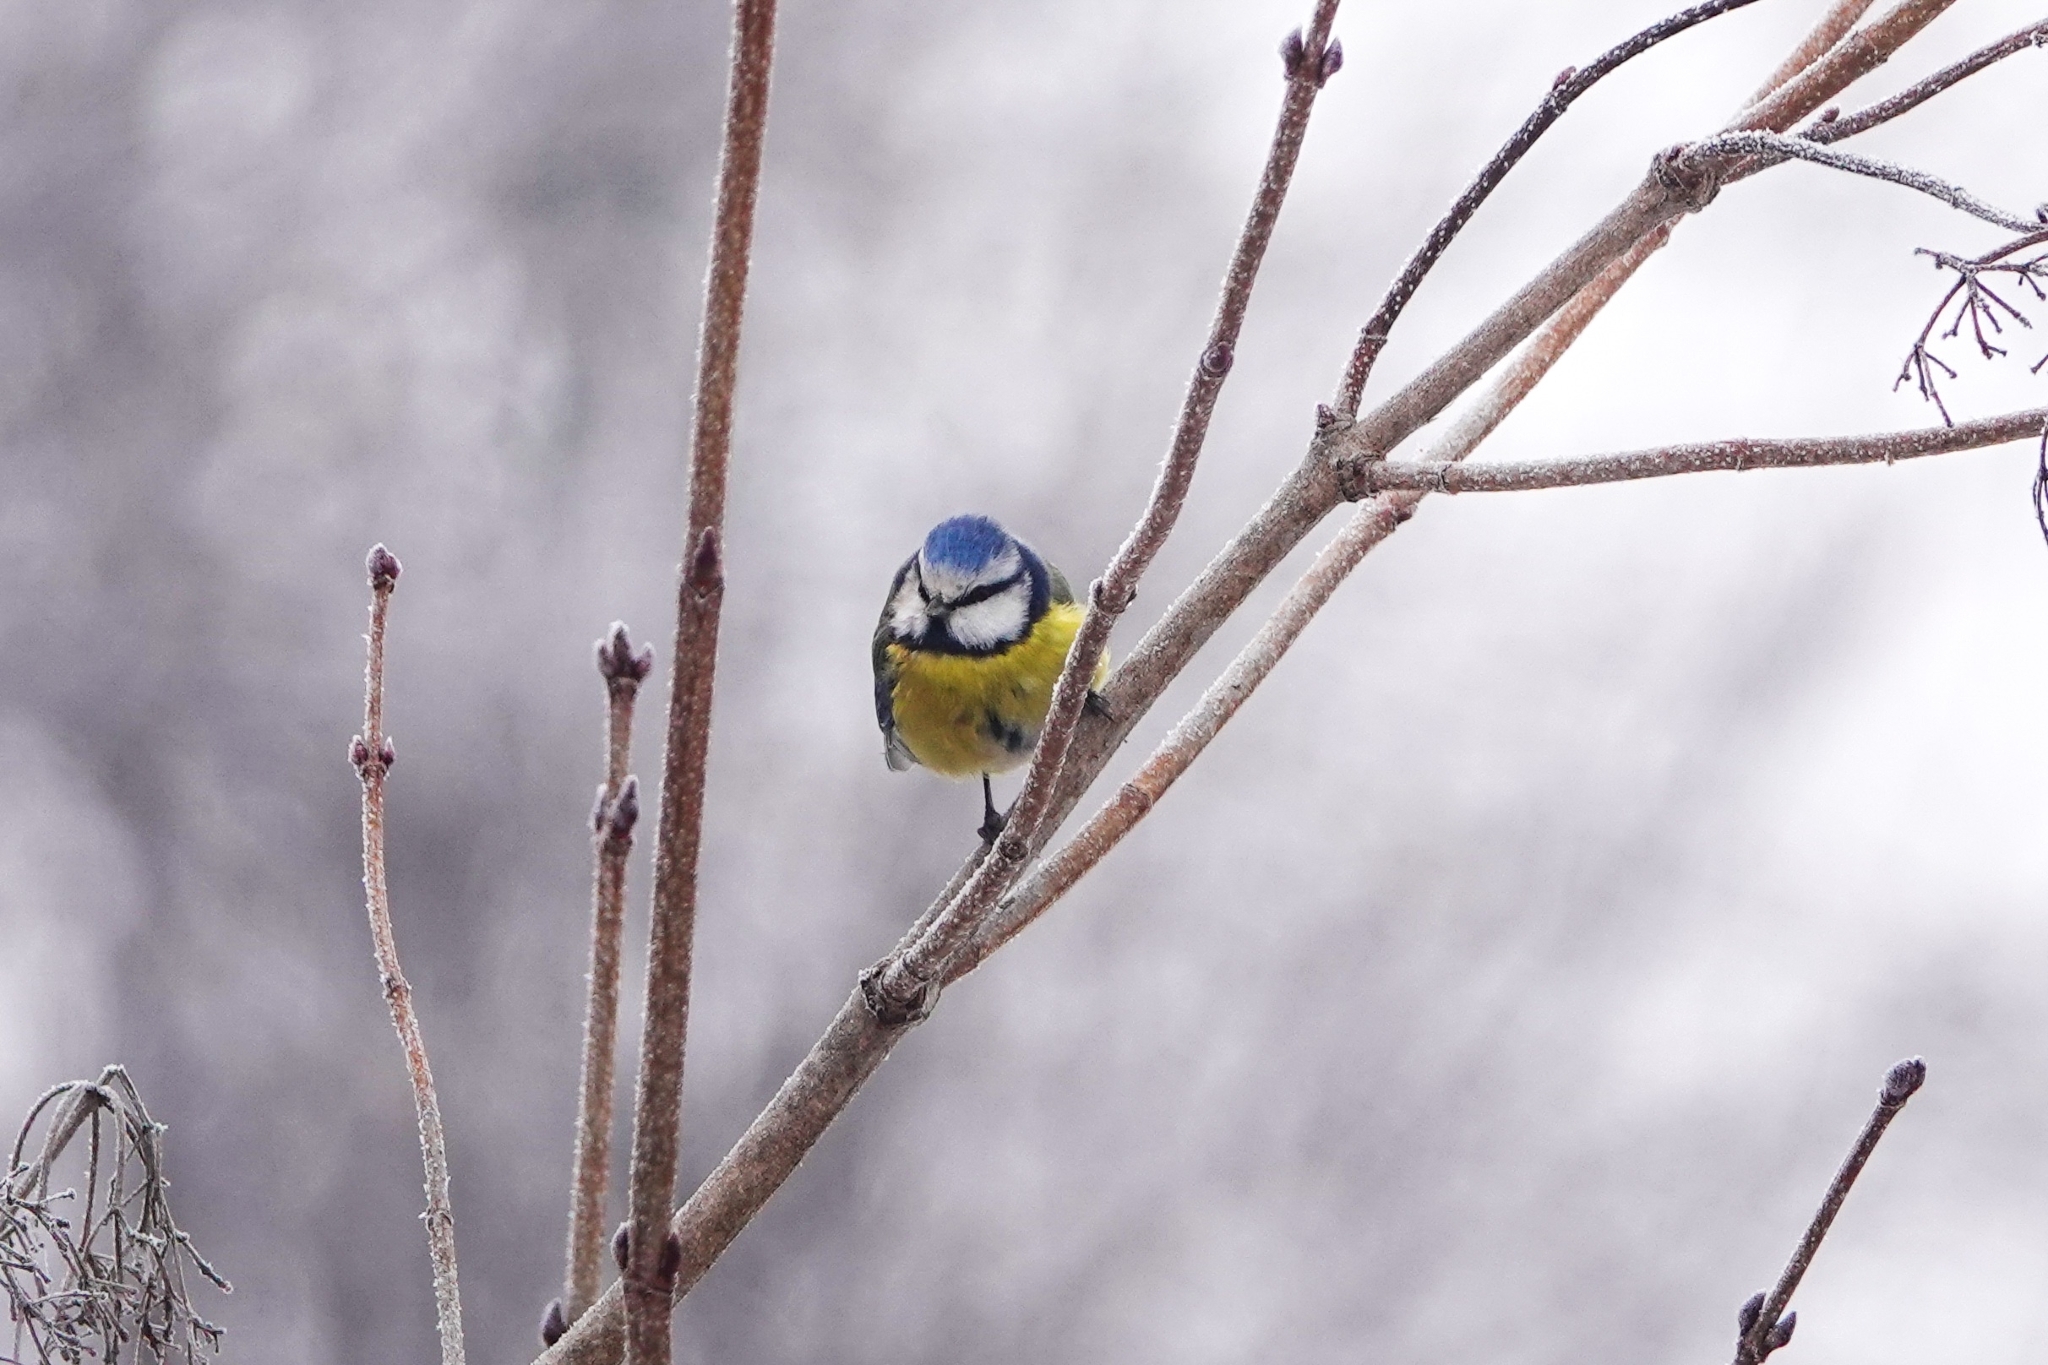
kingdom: Animalia
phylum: Chordata
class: Aves
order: Passeriformes
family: Paridae
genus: Cyanistes
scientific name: Cyanistes caeruleus
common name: Eurasian blue tit
